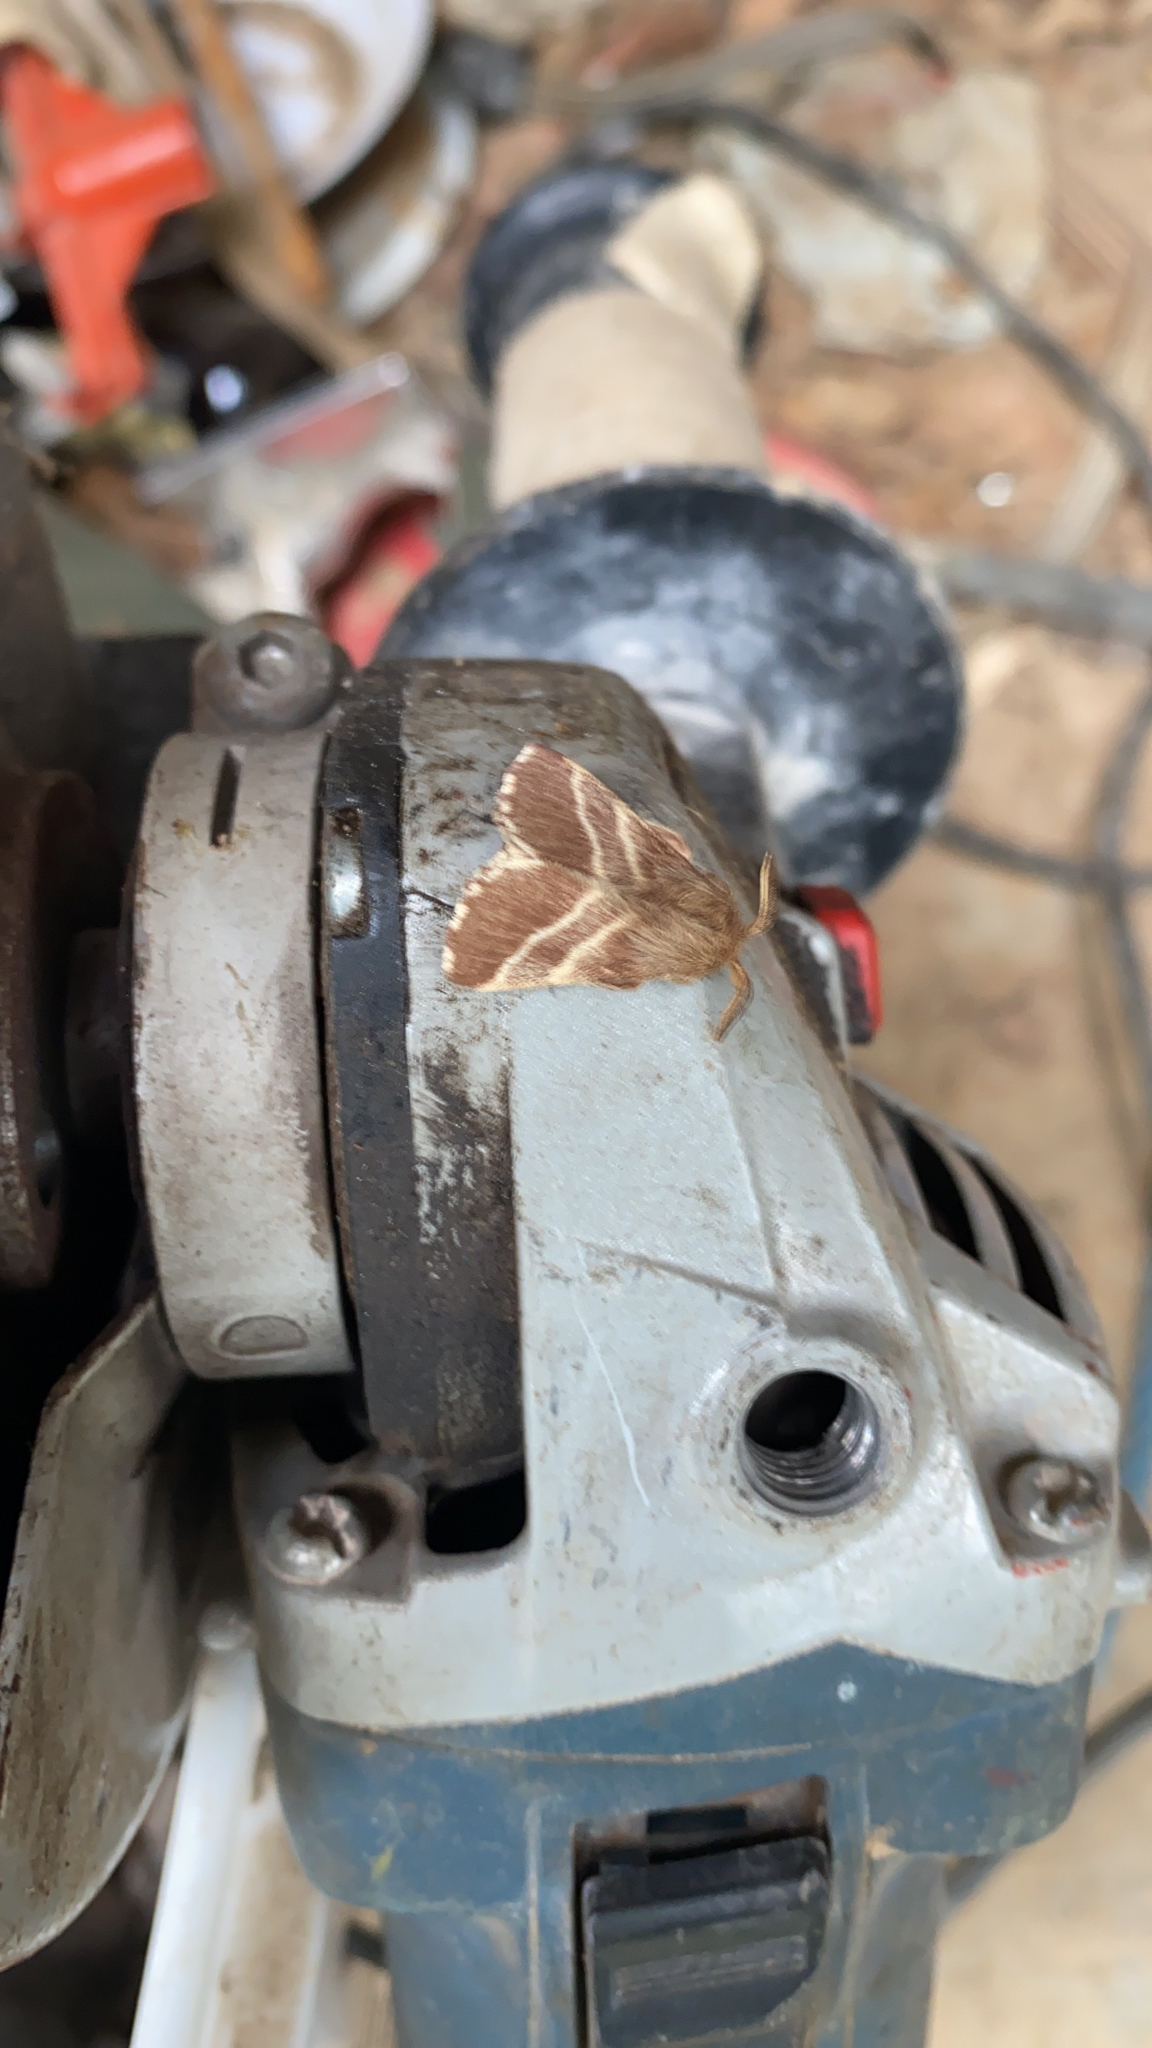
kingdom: Animalia
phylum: Arthropoda
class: Insecta
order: Lepidoptera
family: Lasiocampidae
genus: Malacosoma
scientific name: Malacosoma americana
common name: Eastern tent caterpillar moth
